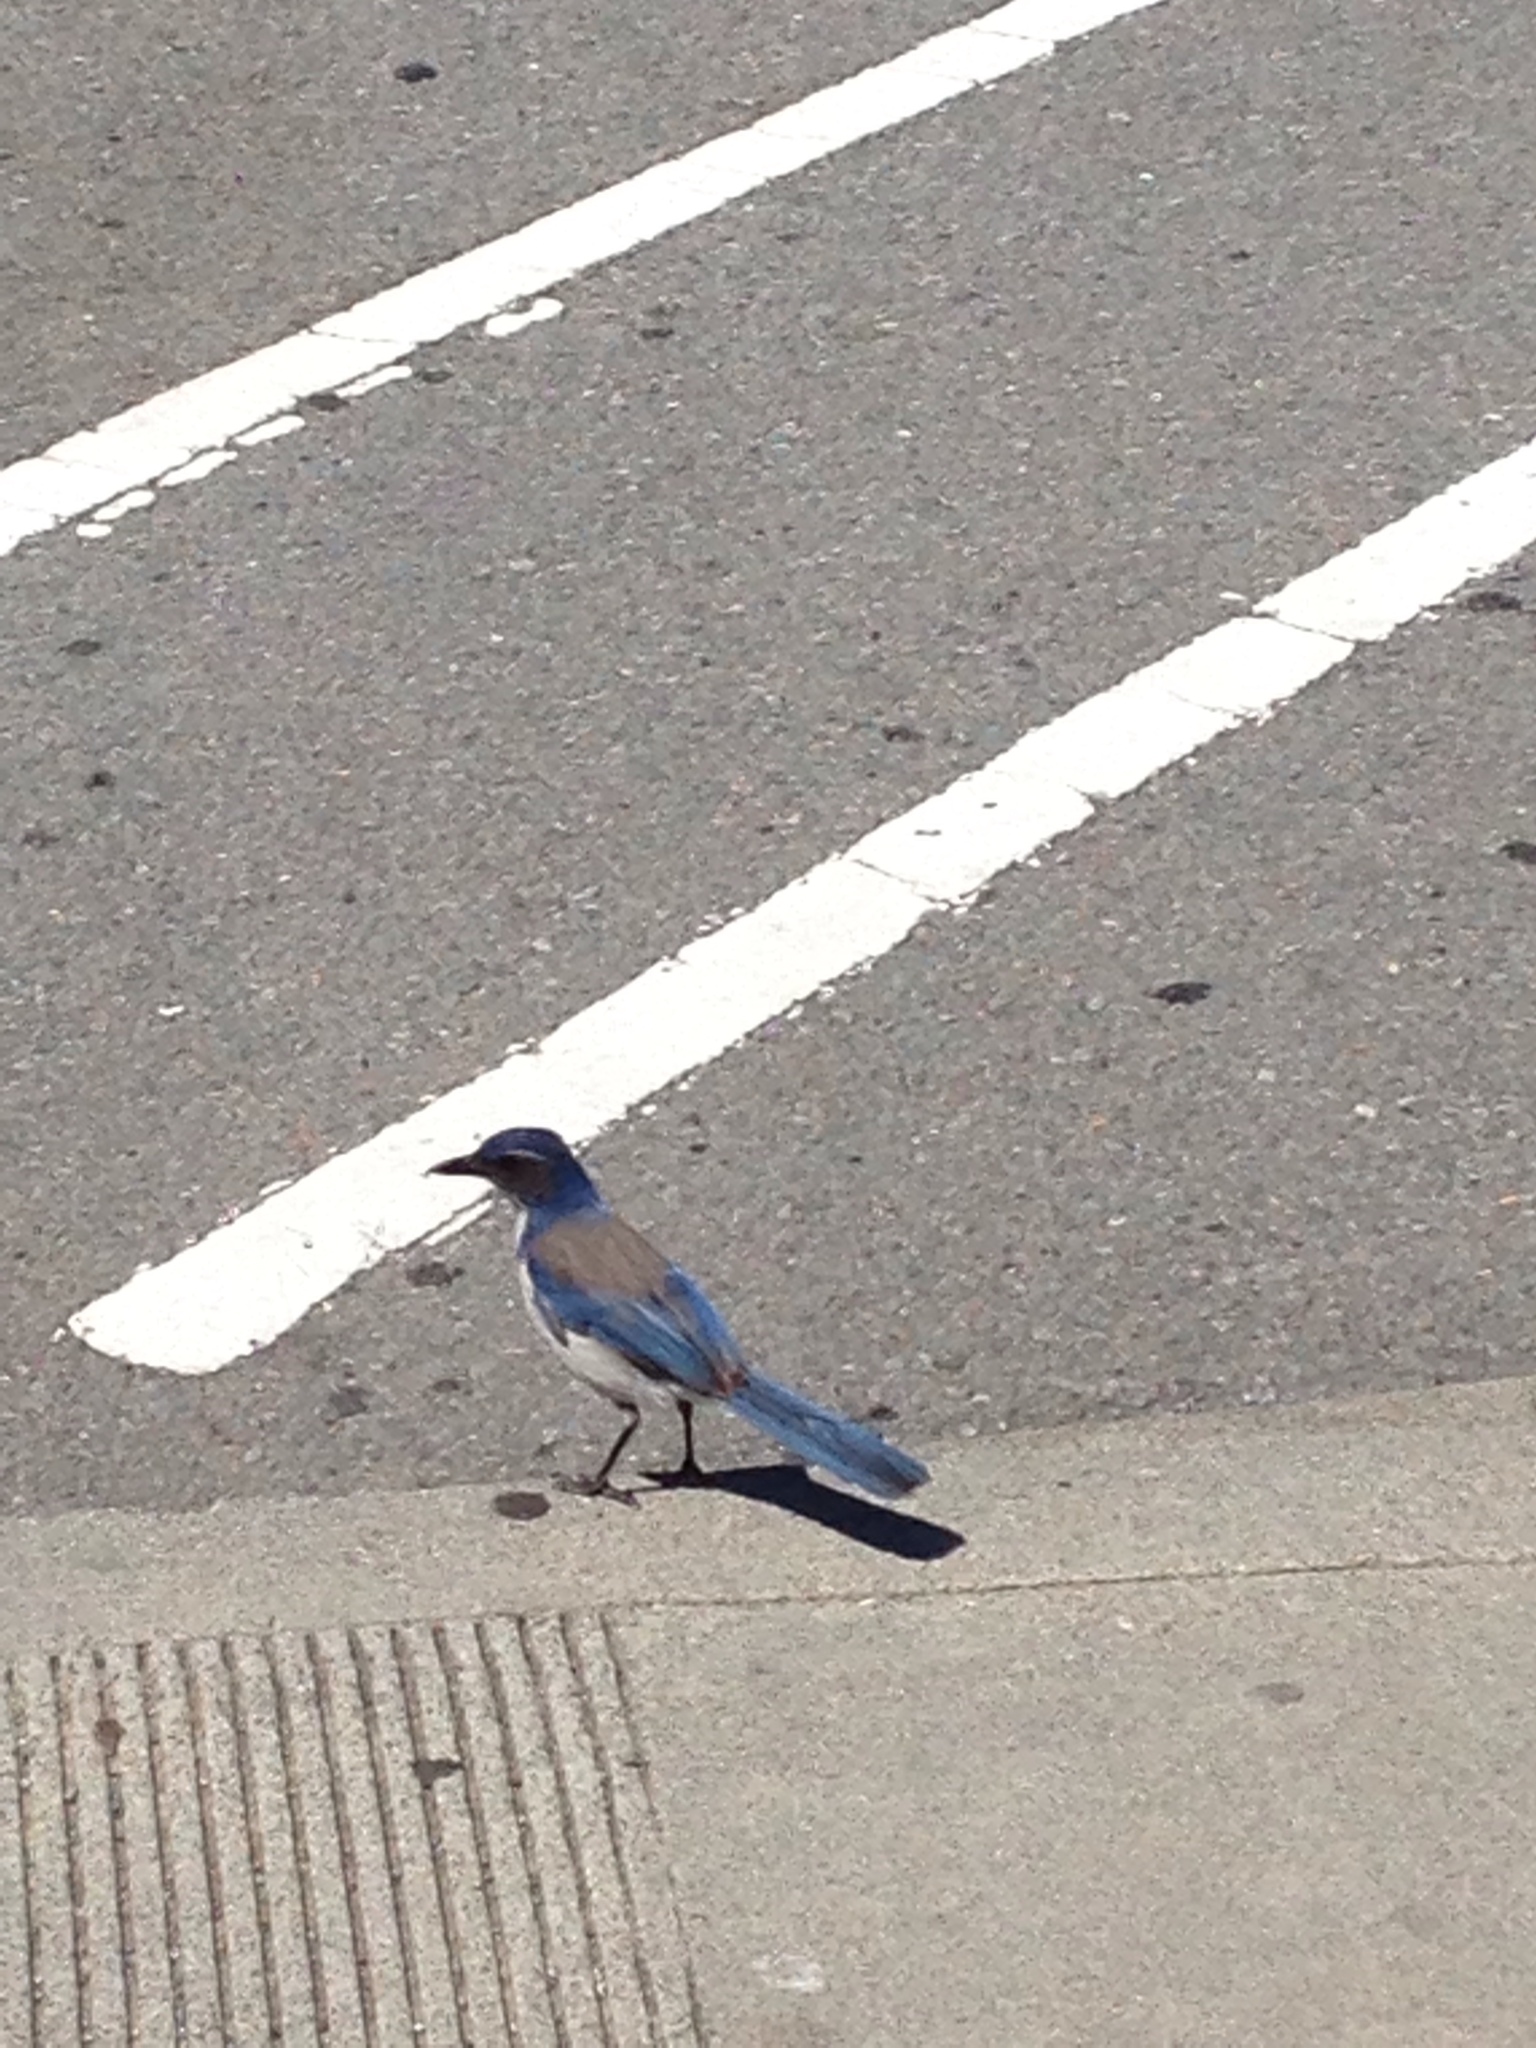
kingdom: Animalia
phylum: Chordata
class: Aves
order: Passeriformes
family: Corvidae
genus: Aphelocoma
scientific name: Aphelocoma californica
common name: California scrub-jay
